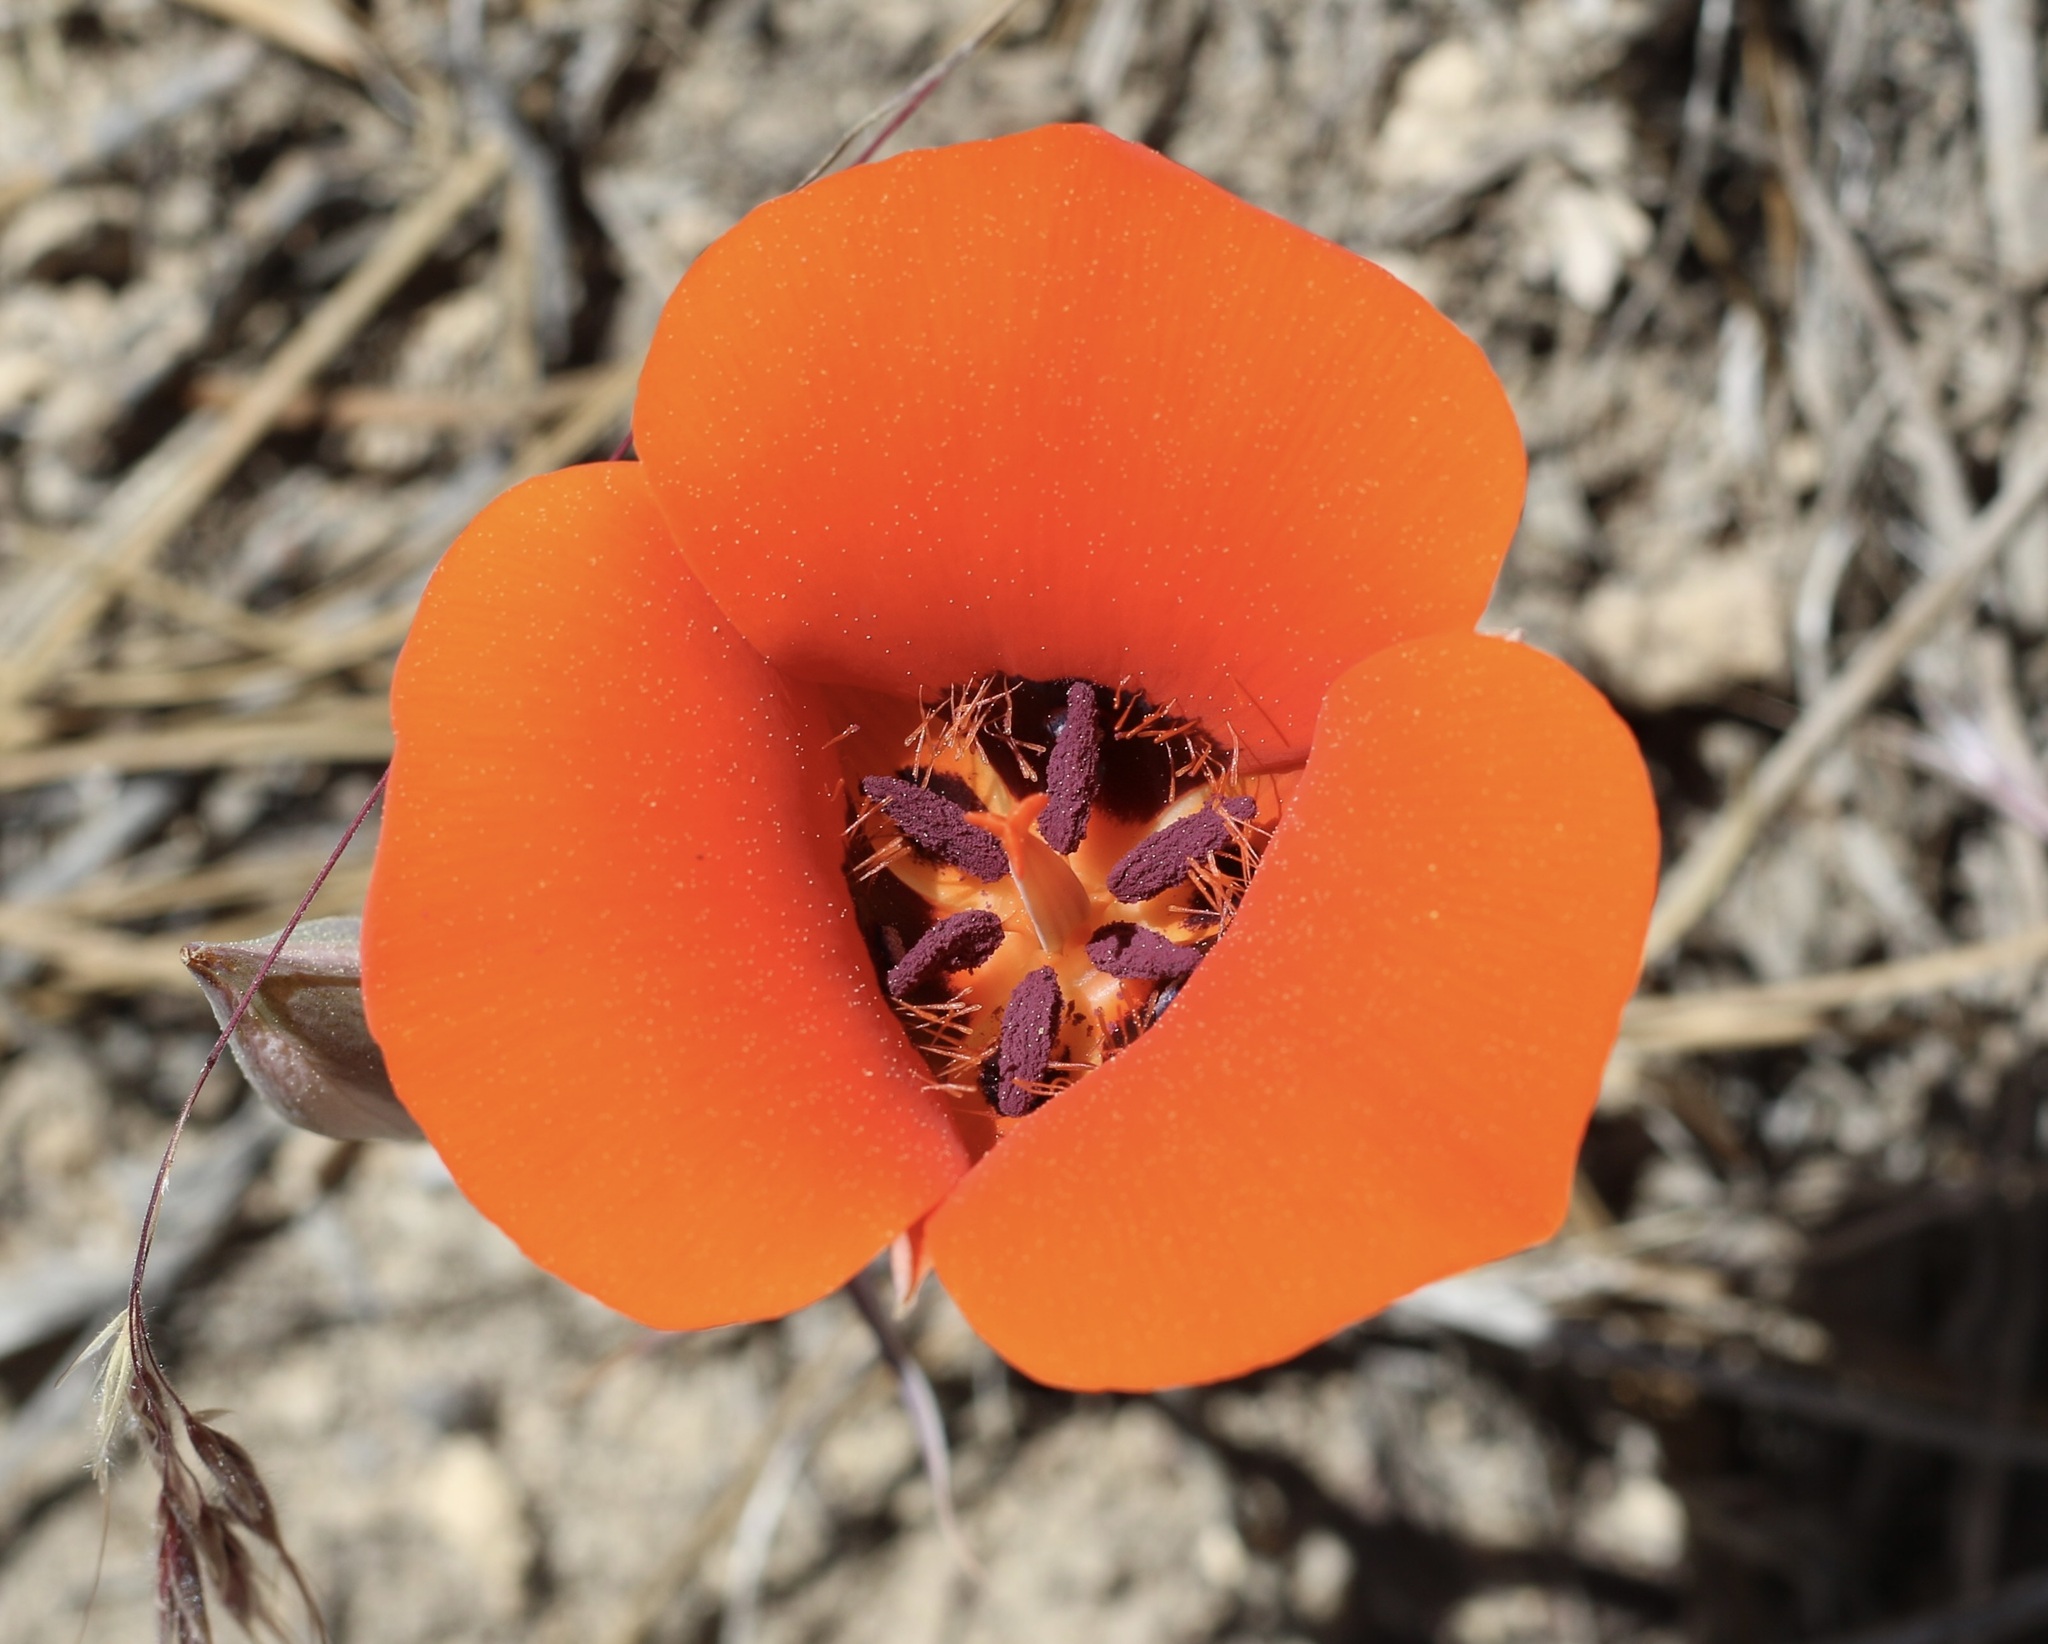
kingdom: Plantae
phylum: Tracheophyta
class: Liliopsida
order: Liliales
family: Liliaceae
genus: Calochortus
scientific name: Calochortus kennedyi
